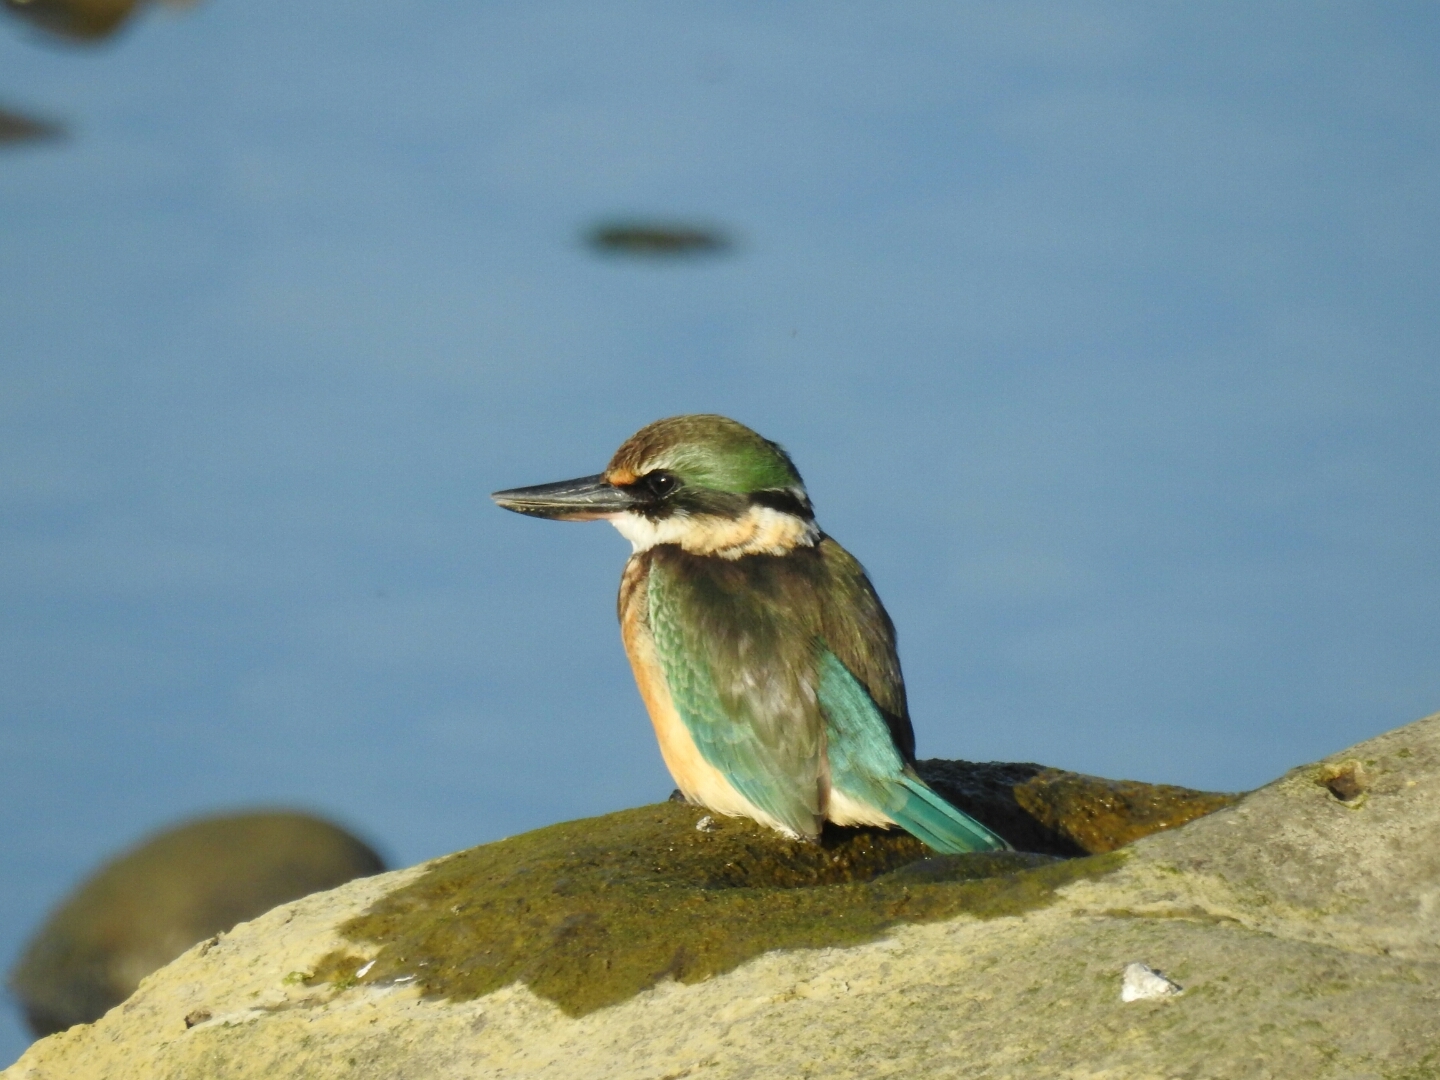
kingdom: Animalia
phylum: Chordata
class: Aves
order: Coraciiformes
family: Alcedinidae
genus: Todiramphus
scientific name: Todiramphus sanctus
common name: Sacred kingfisher
